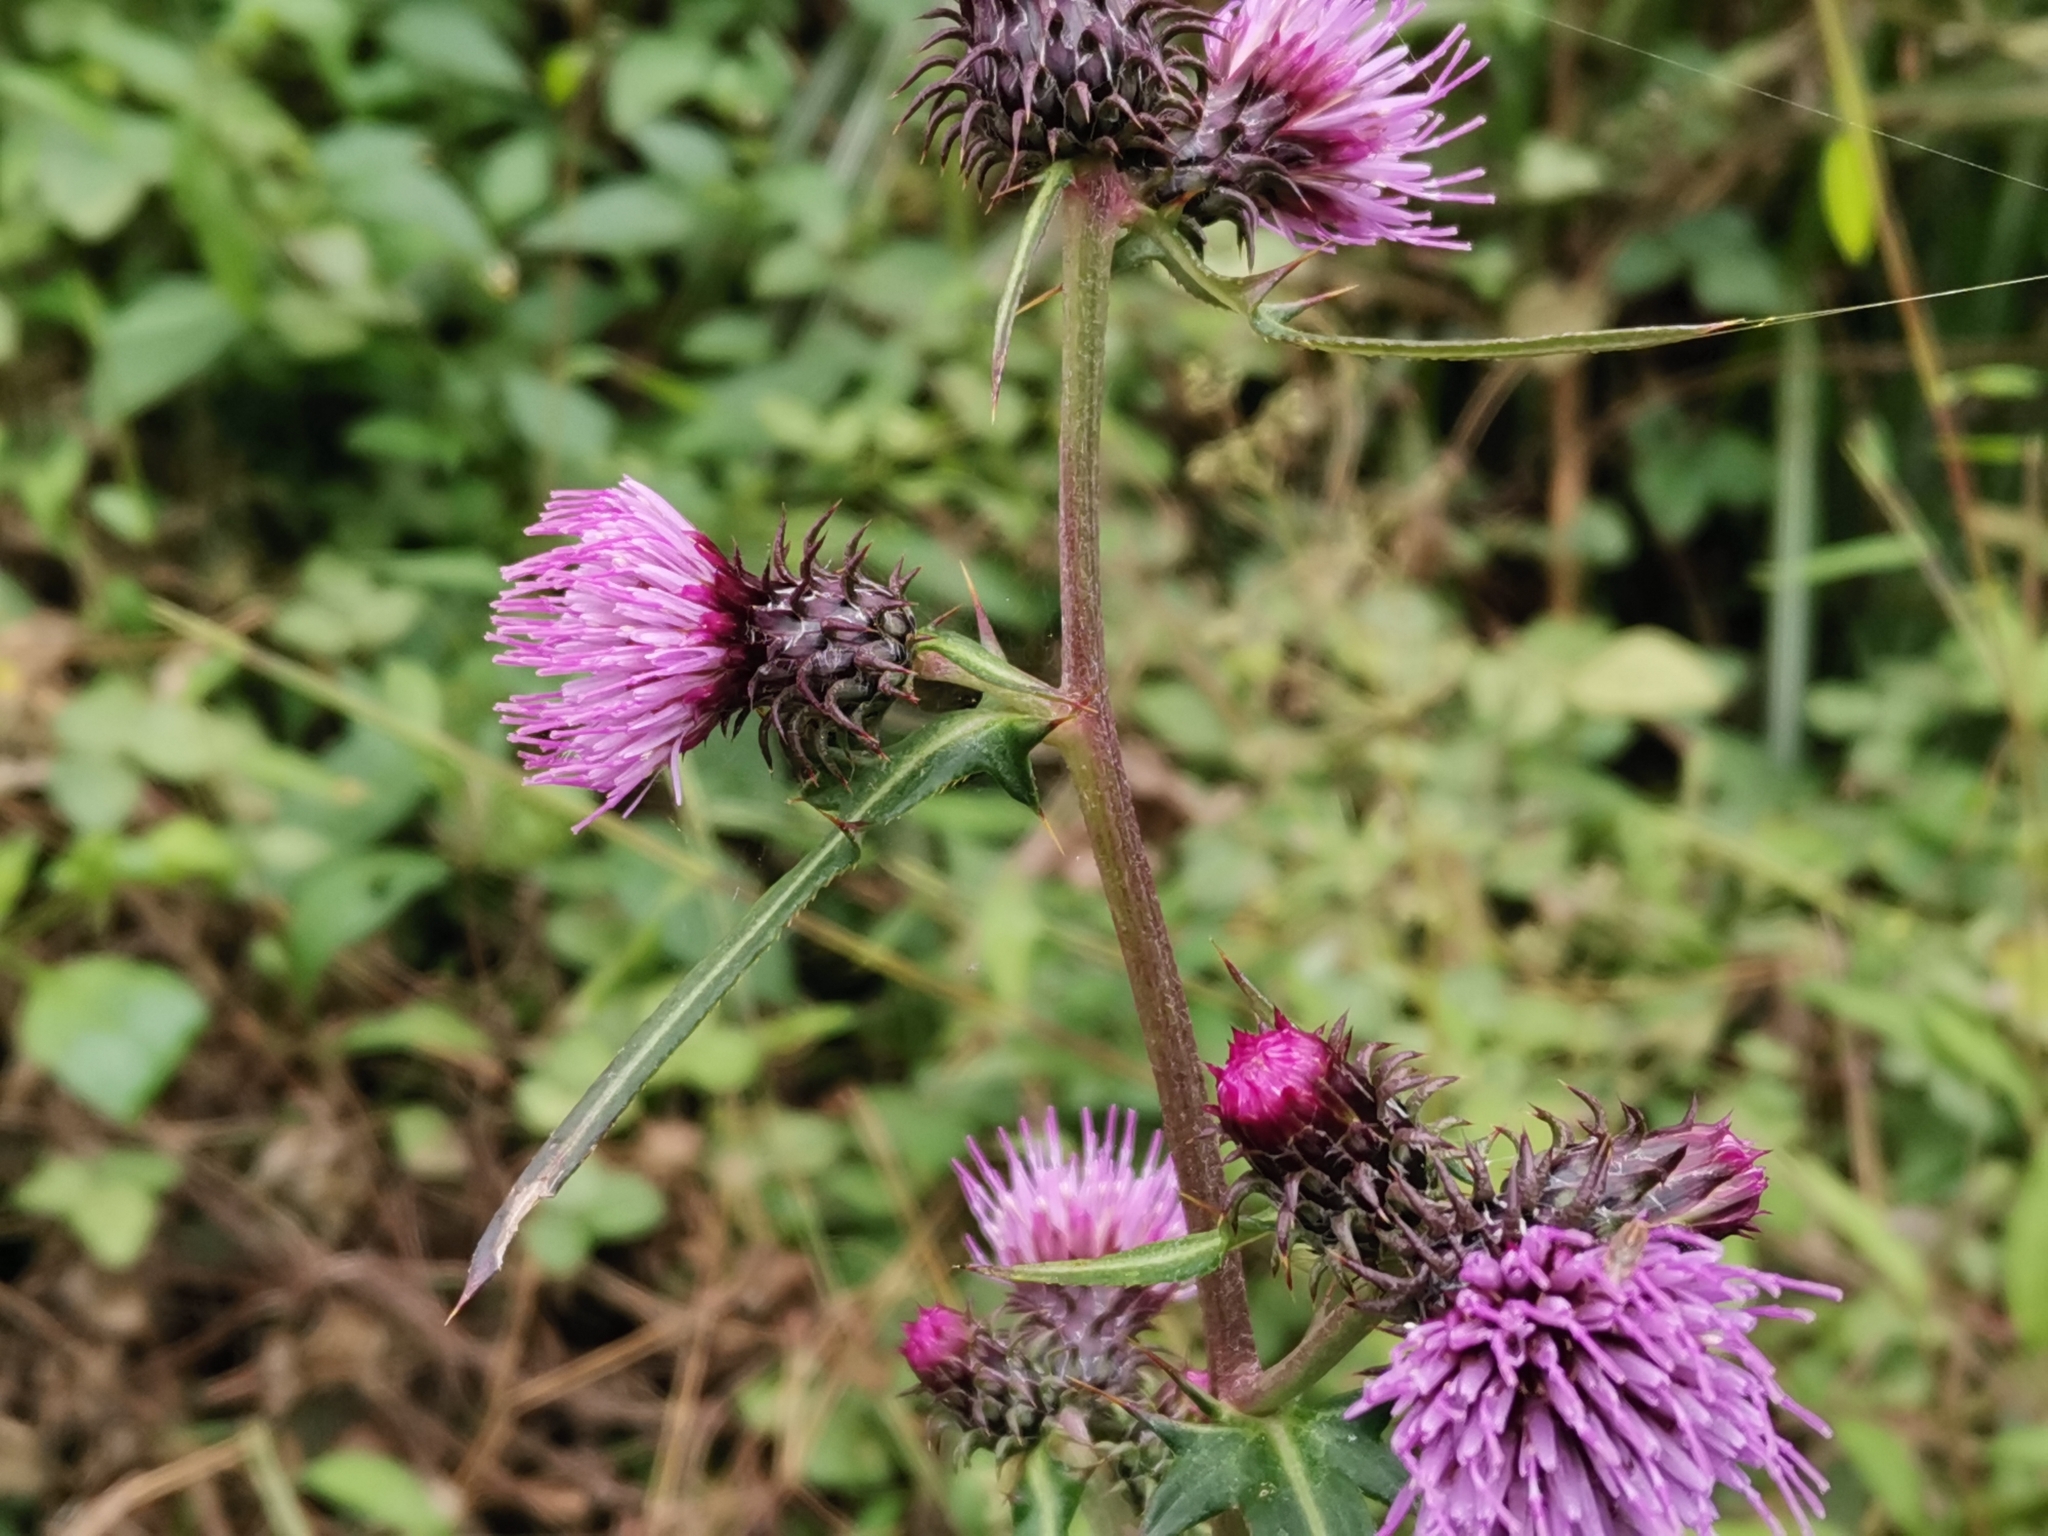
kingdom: Plantae
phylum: Tracheophyta
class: Magnoliopsida
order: Asterales
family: Asteraceae
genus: Cirsium
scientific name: Cirsium nipponicum
